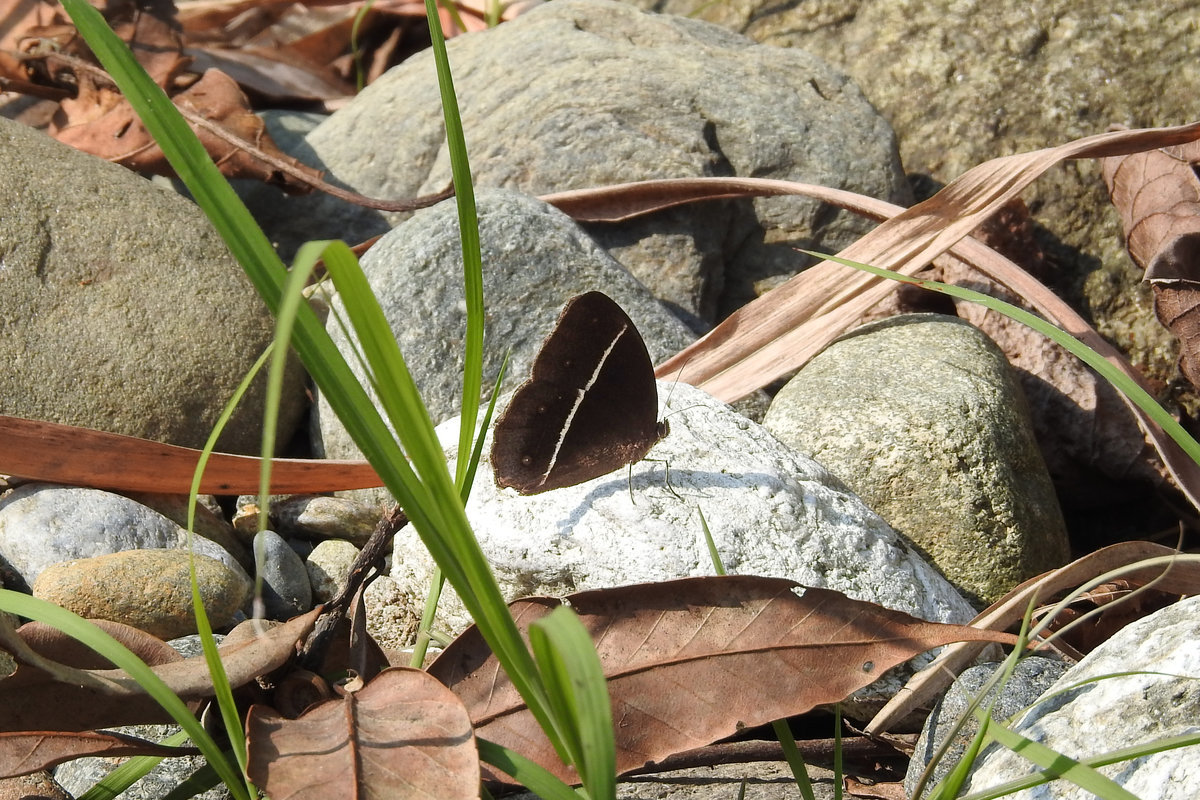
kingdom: Animalia
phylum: Arthropoda
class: Insecta
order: Lepidoptera
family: Nymphalidae
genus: Orsotriaena
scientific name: Orsotriaena medus
